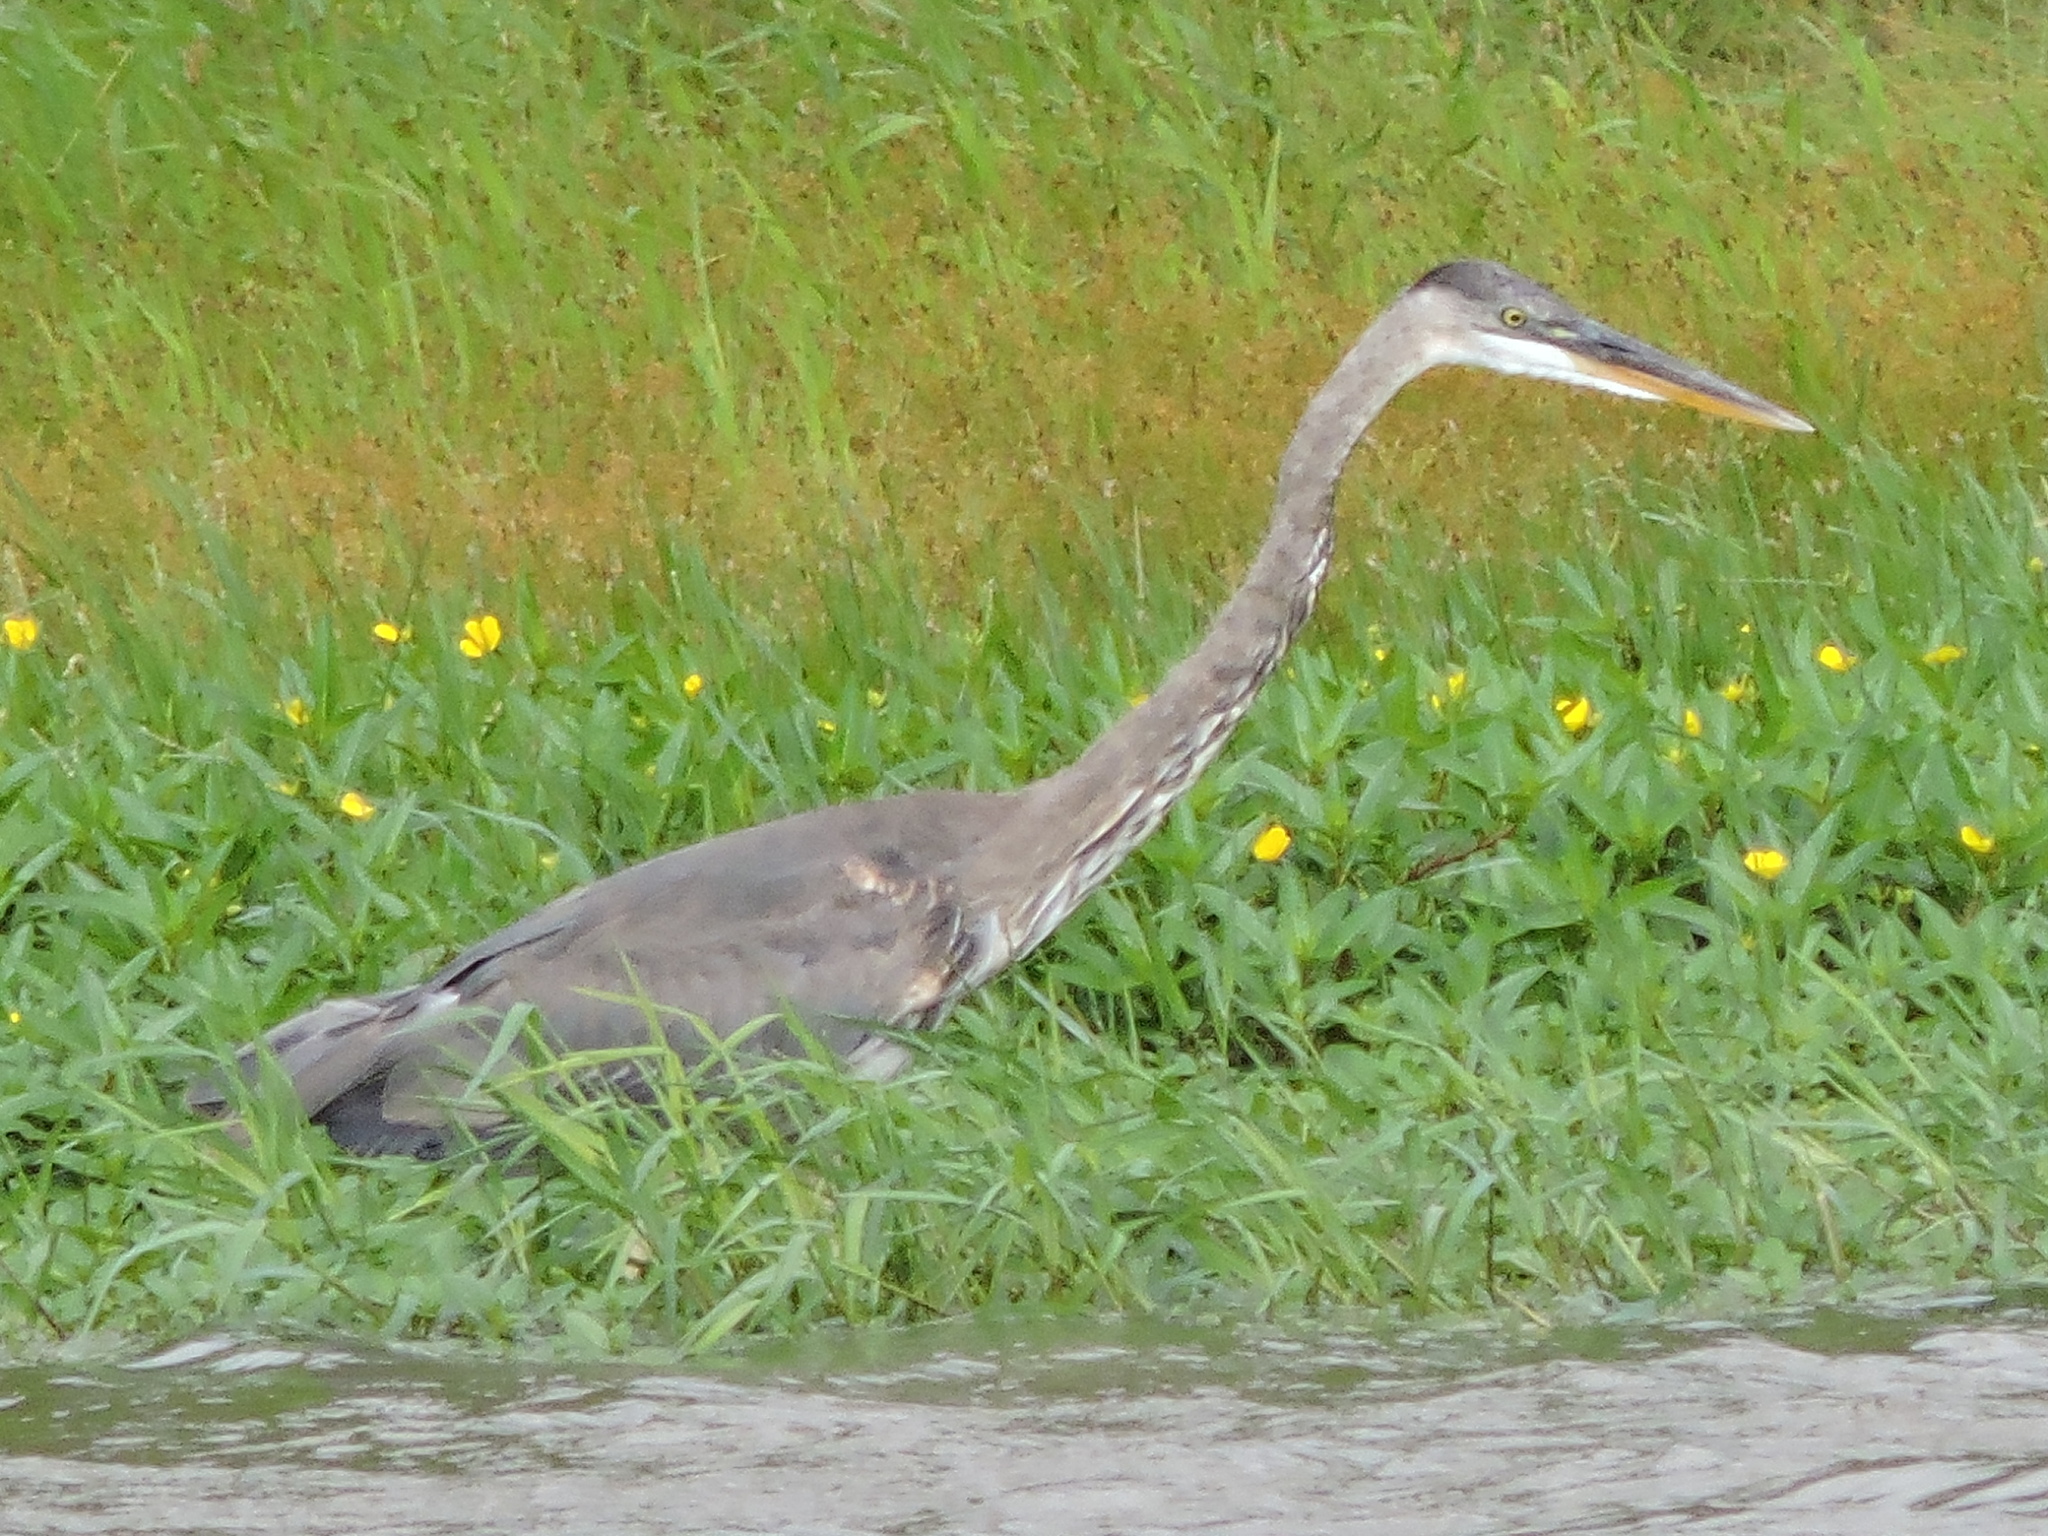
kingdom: Animalia
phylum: Chordata
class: Aves
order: Pelecaniformes
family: Ardeidae
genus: Ardea
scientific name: Ardea herodias
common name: Great blue heron
